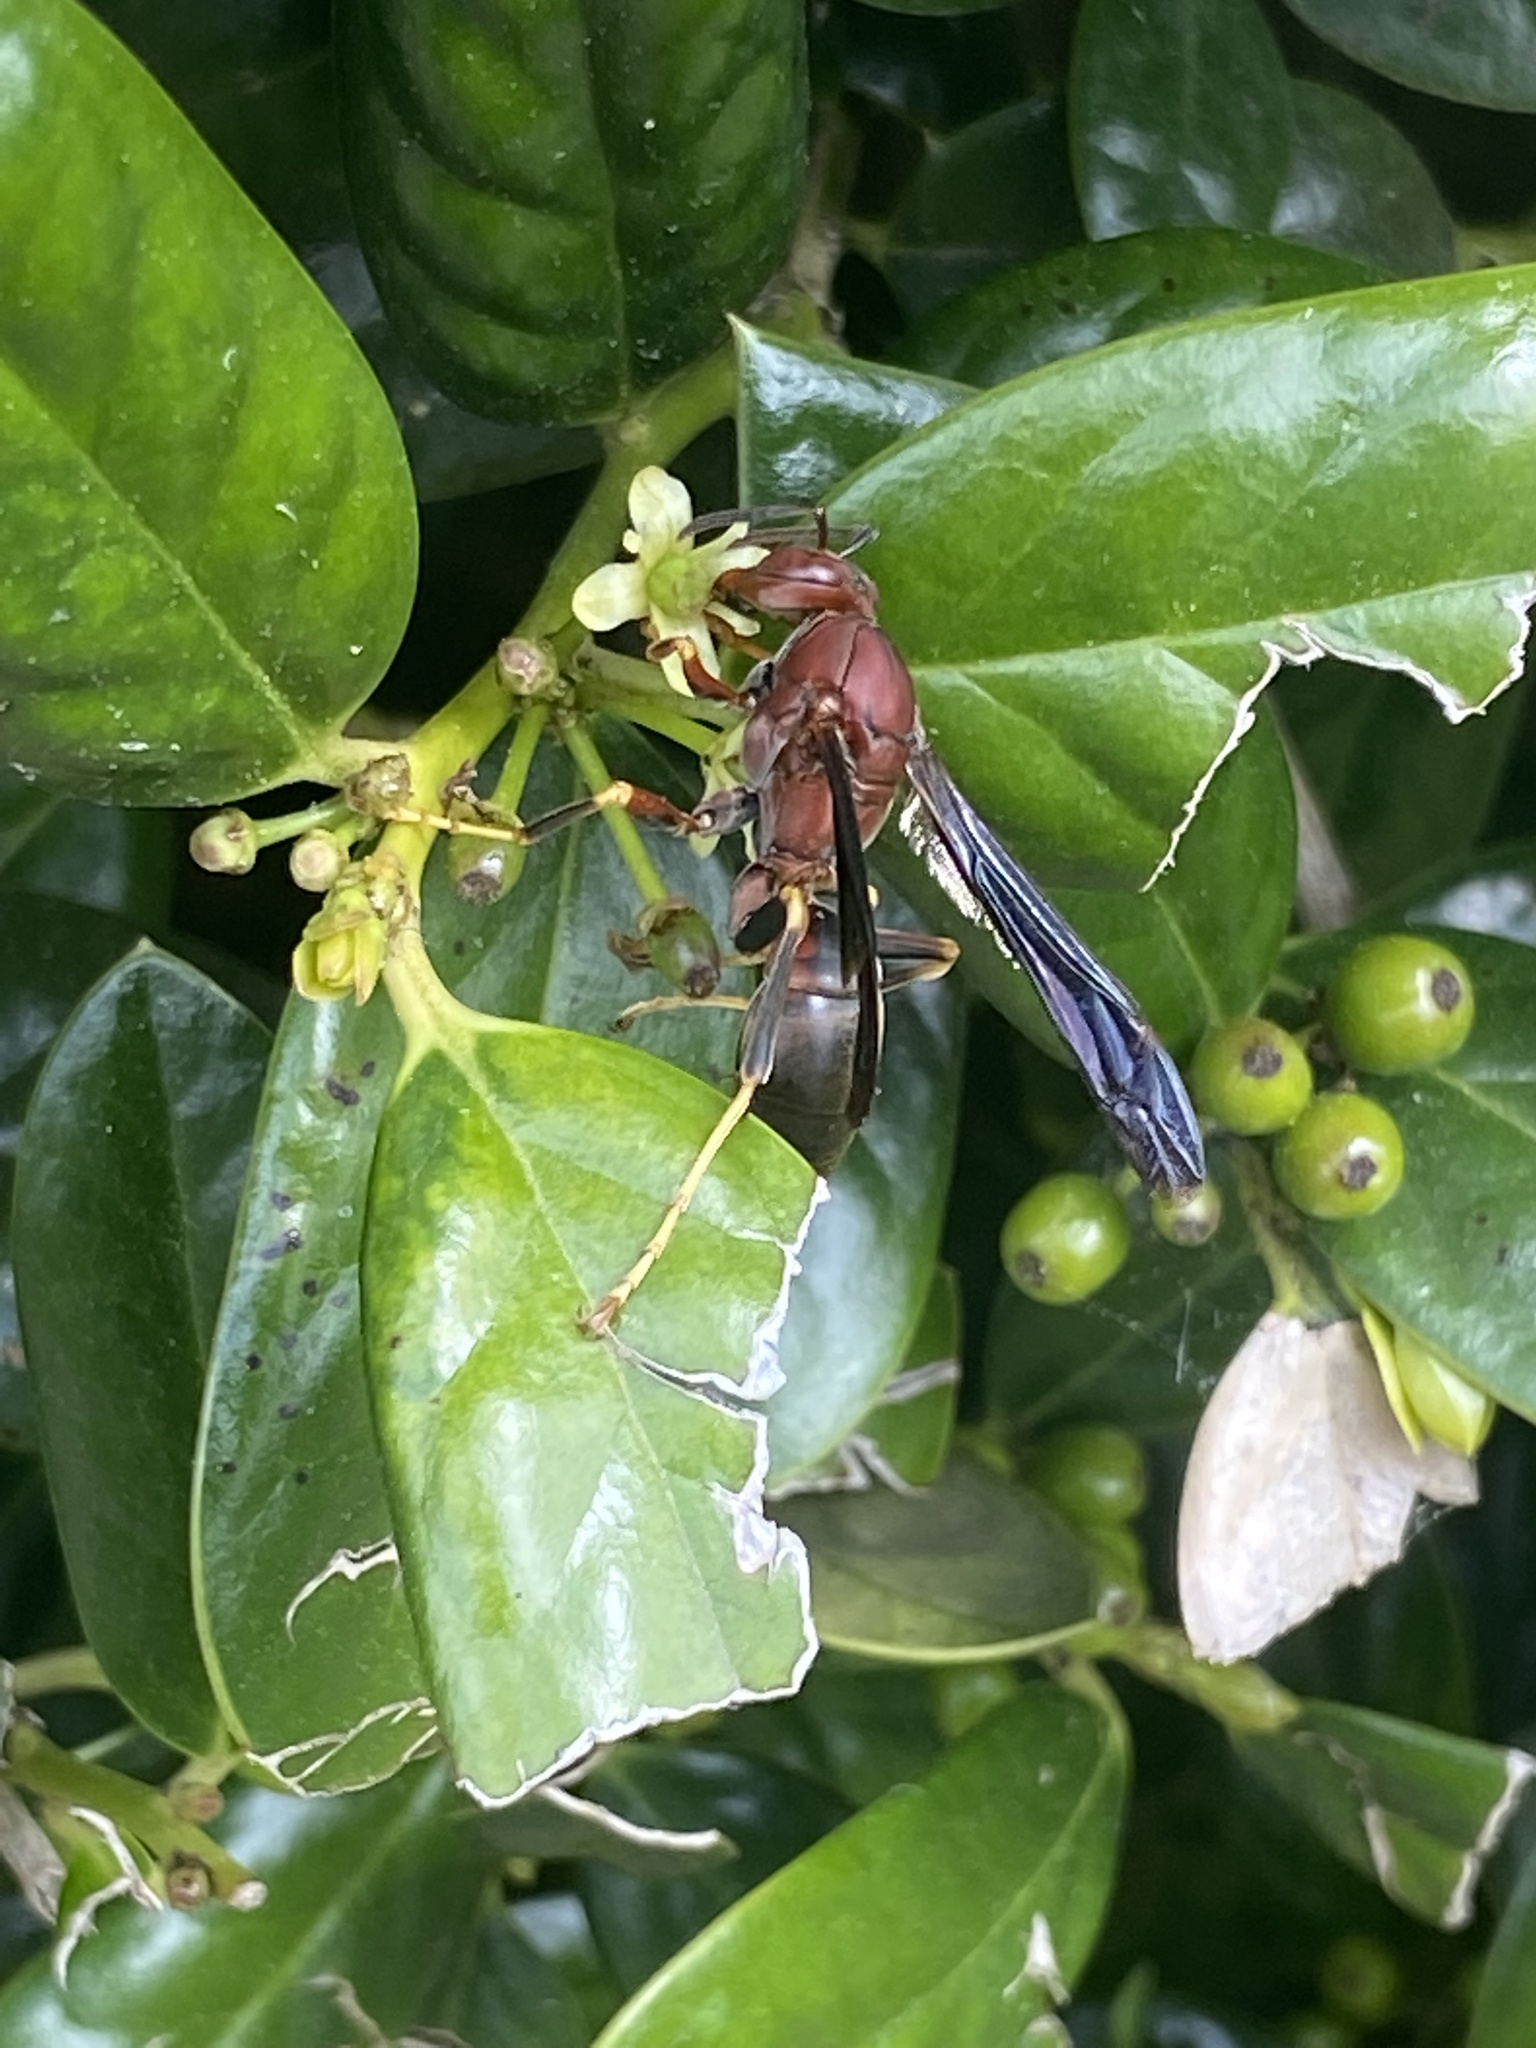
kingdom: Animalia
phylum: Arthropoda
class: Insecta
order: Hymenoptera
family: Eumenidae
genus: Polistes
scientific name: Polistes metricus
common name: Metric paper wasp
